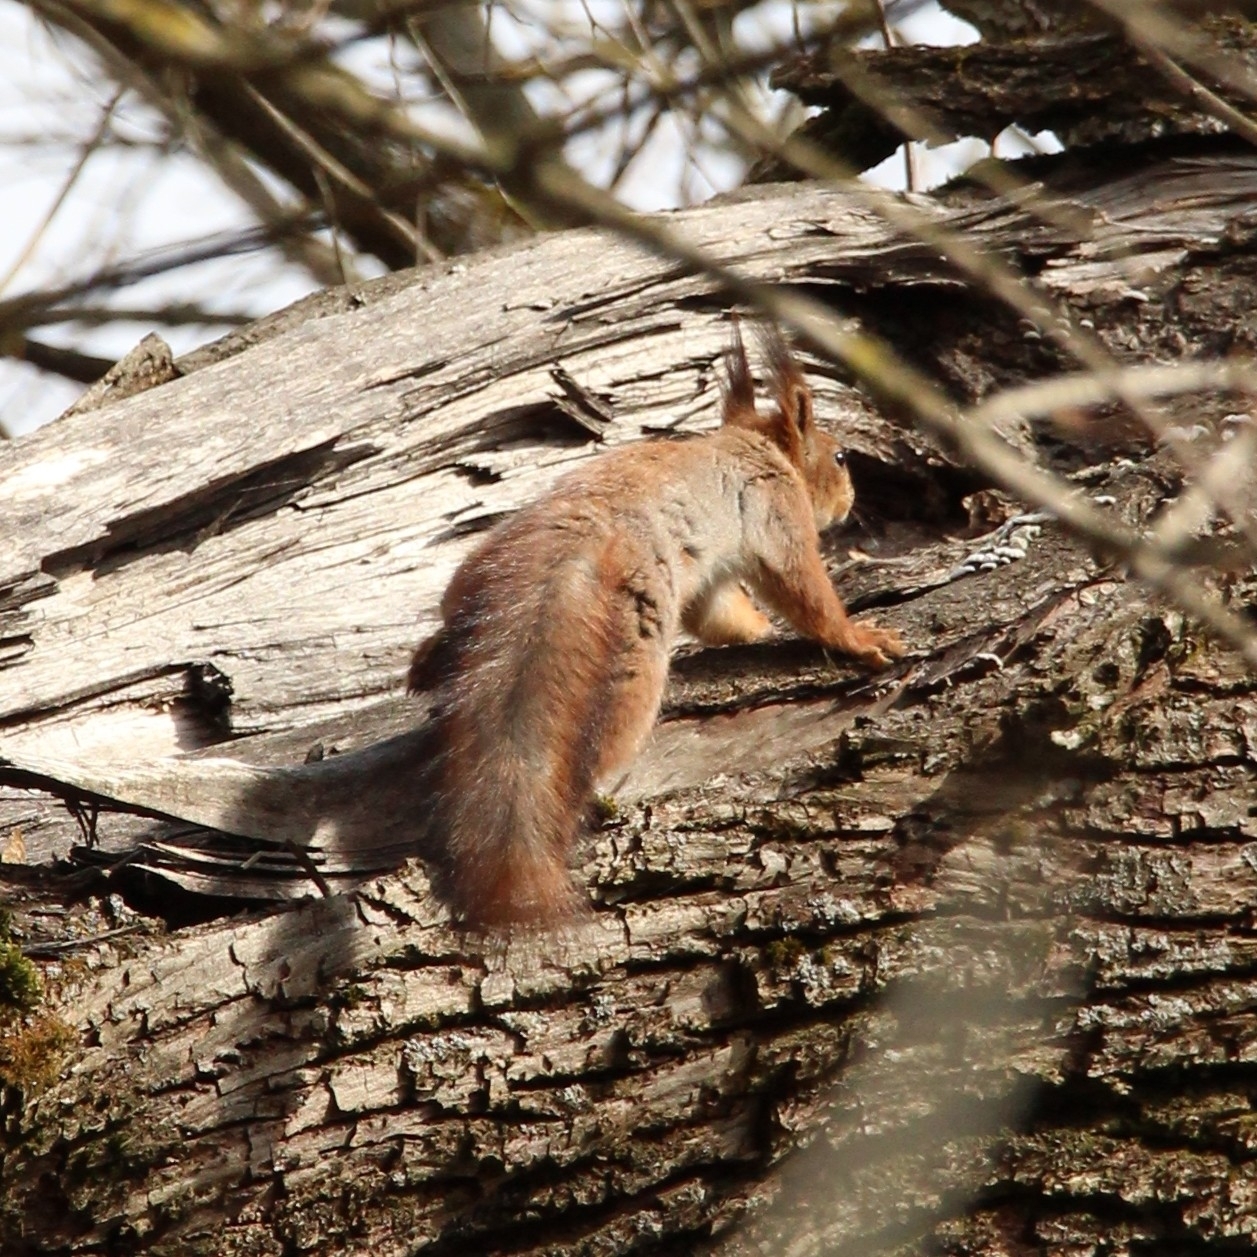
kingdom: Animalia
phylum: Chordata
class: Mammalia
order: Rodentia
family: Sciuridae
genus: Sciurus
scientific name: Sciurus vulgaris
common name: Eurasian red squirrel
